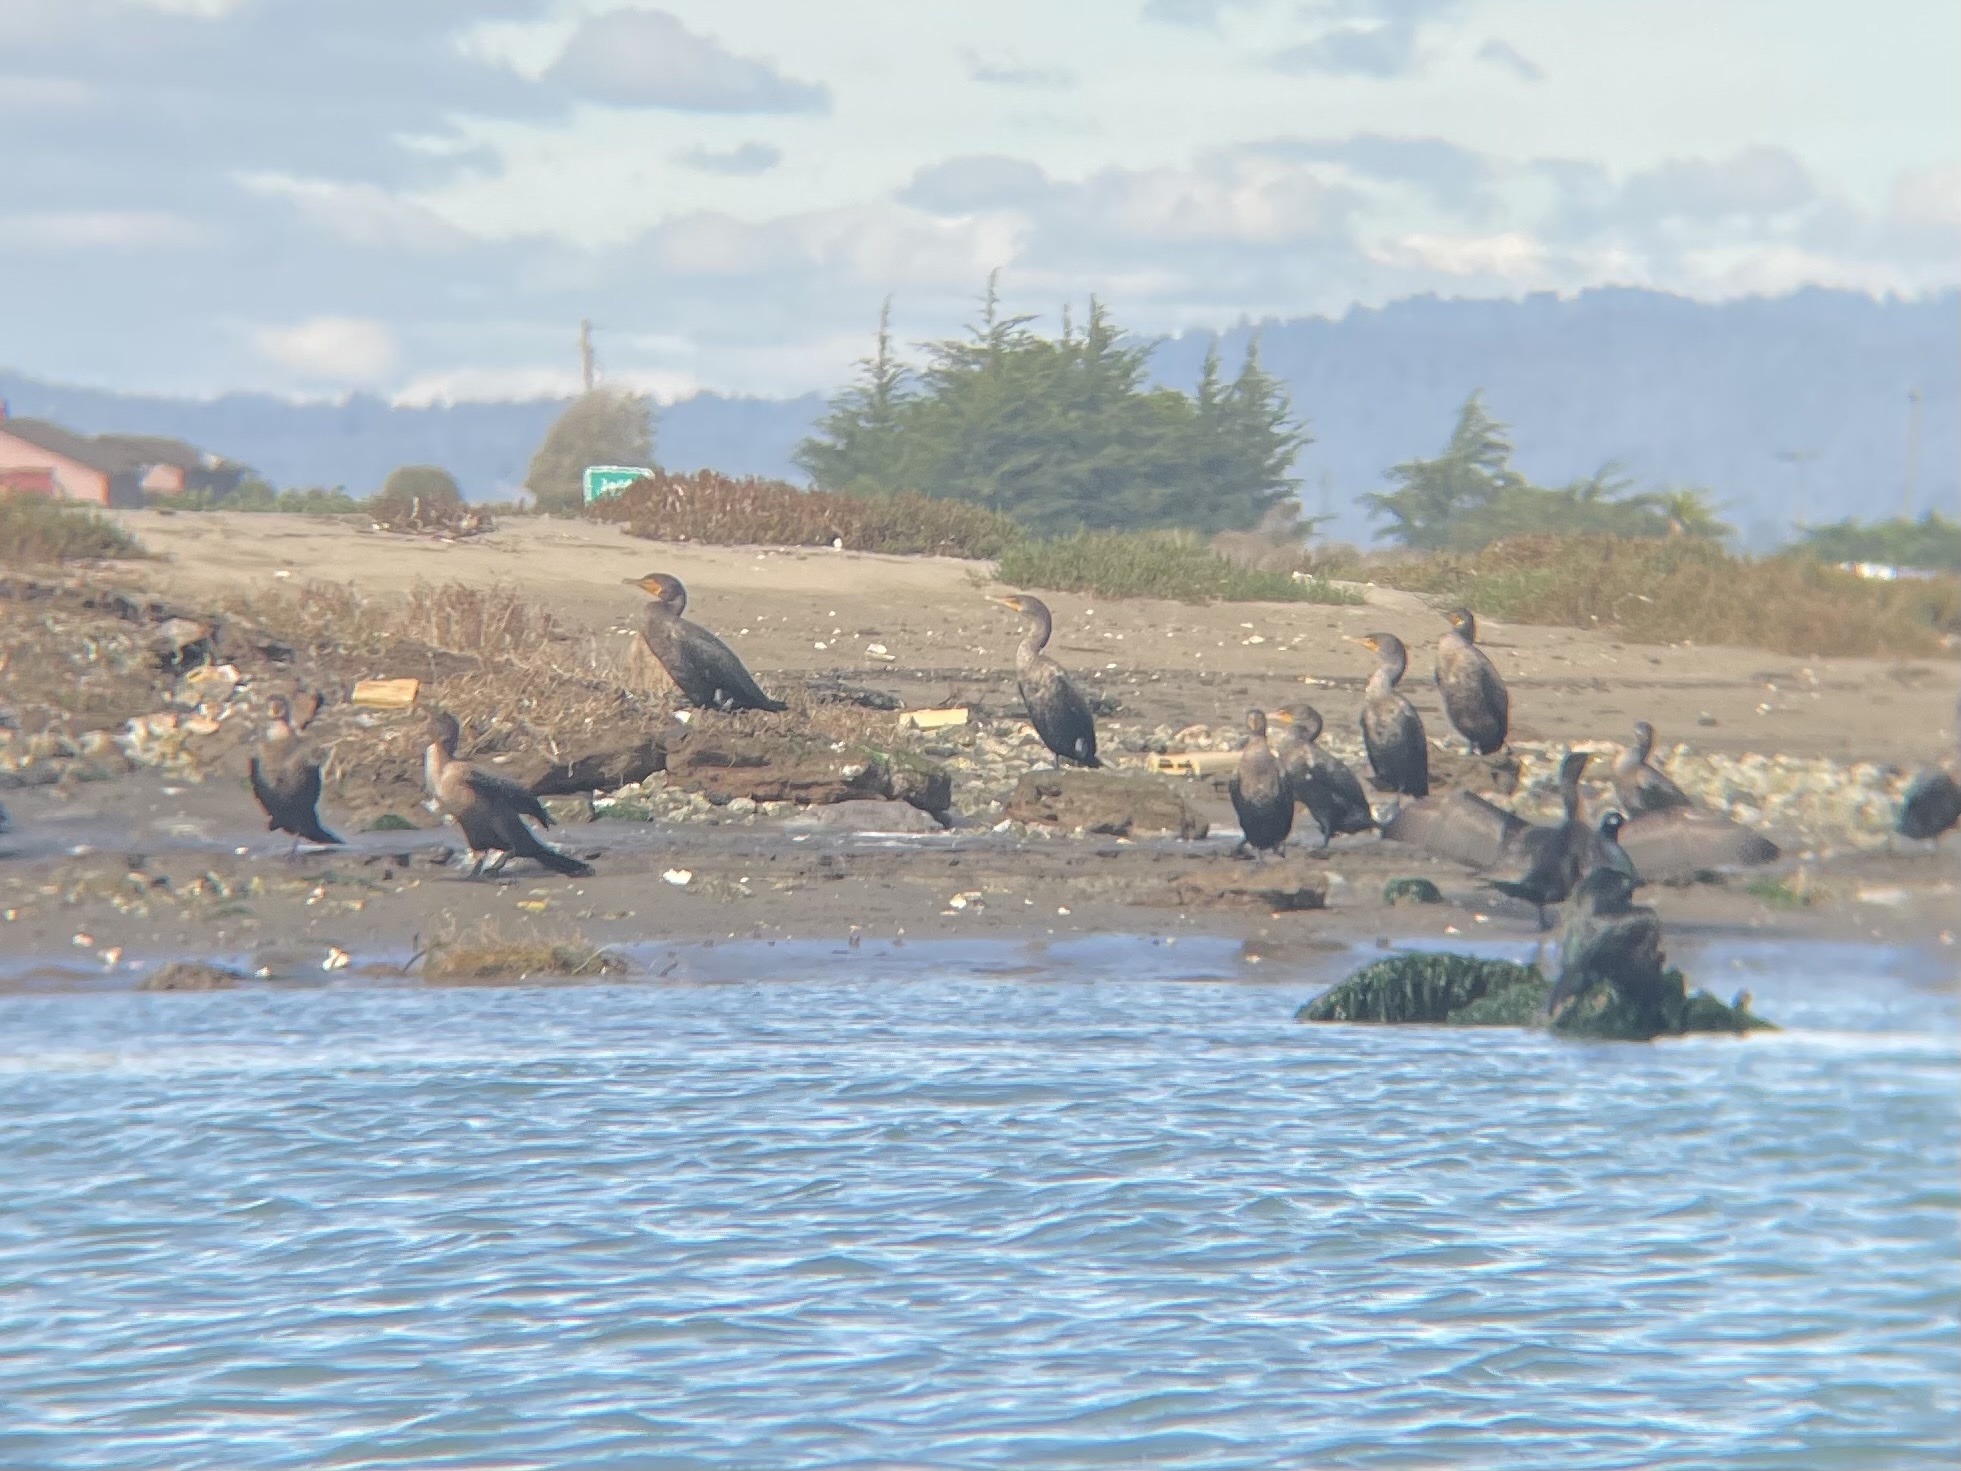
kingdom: Animalia
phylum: Chordata
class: Aves
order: Suliformes
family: Phalacrocoracidae
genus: Phalacrocorax
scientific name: Phalacrocorax auritus
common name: Double-crested cormorant
